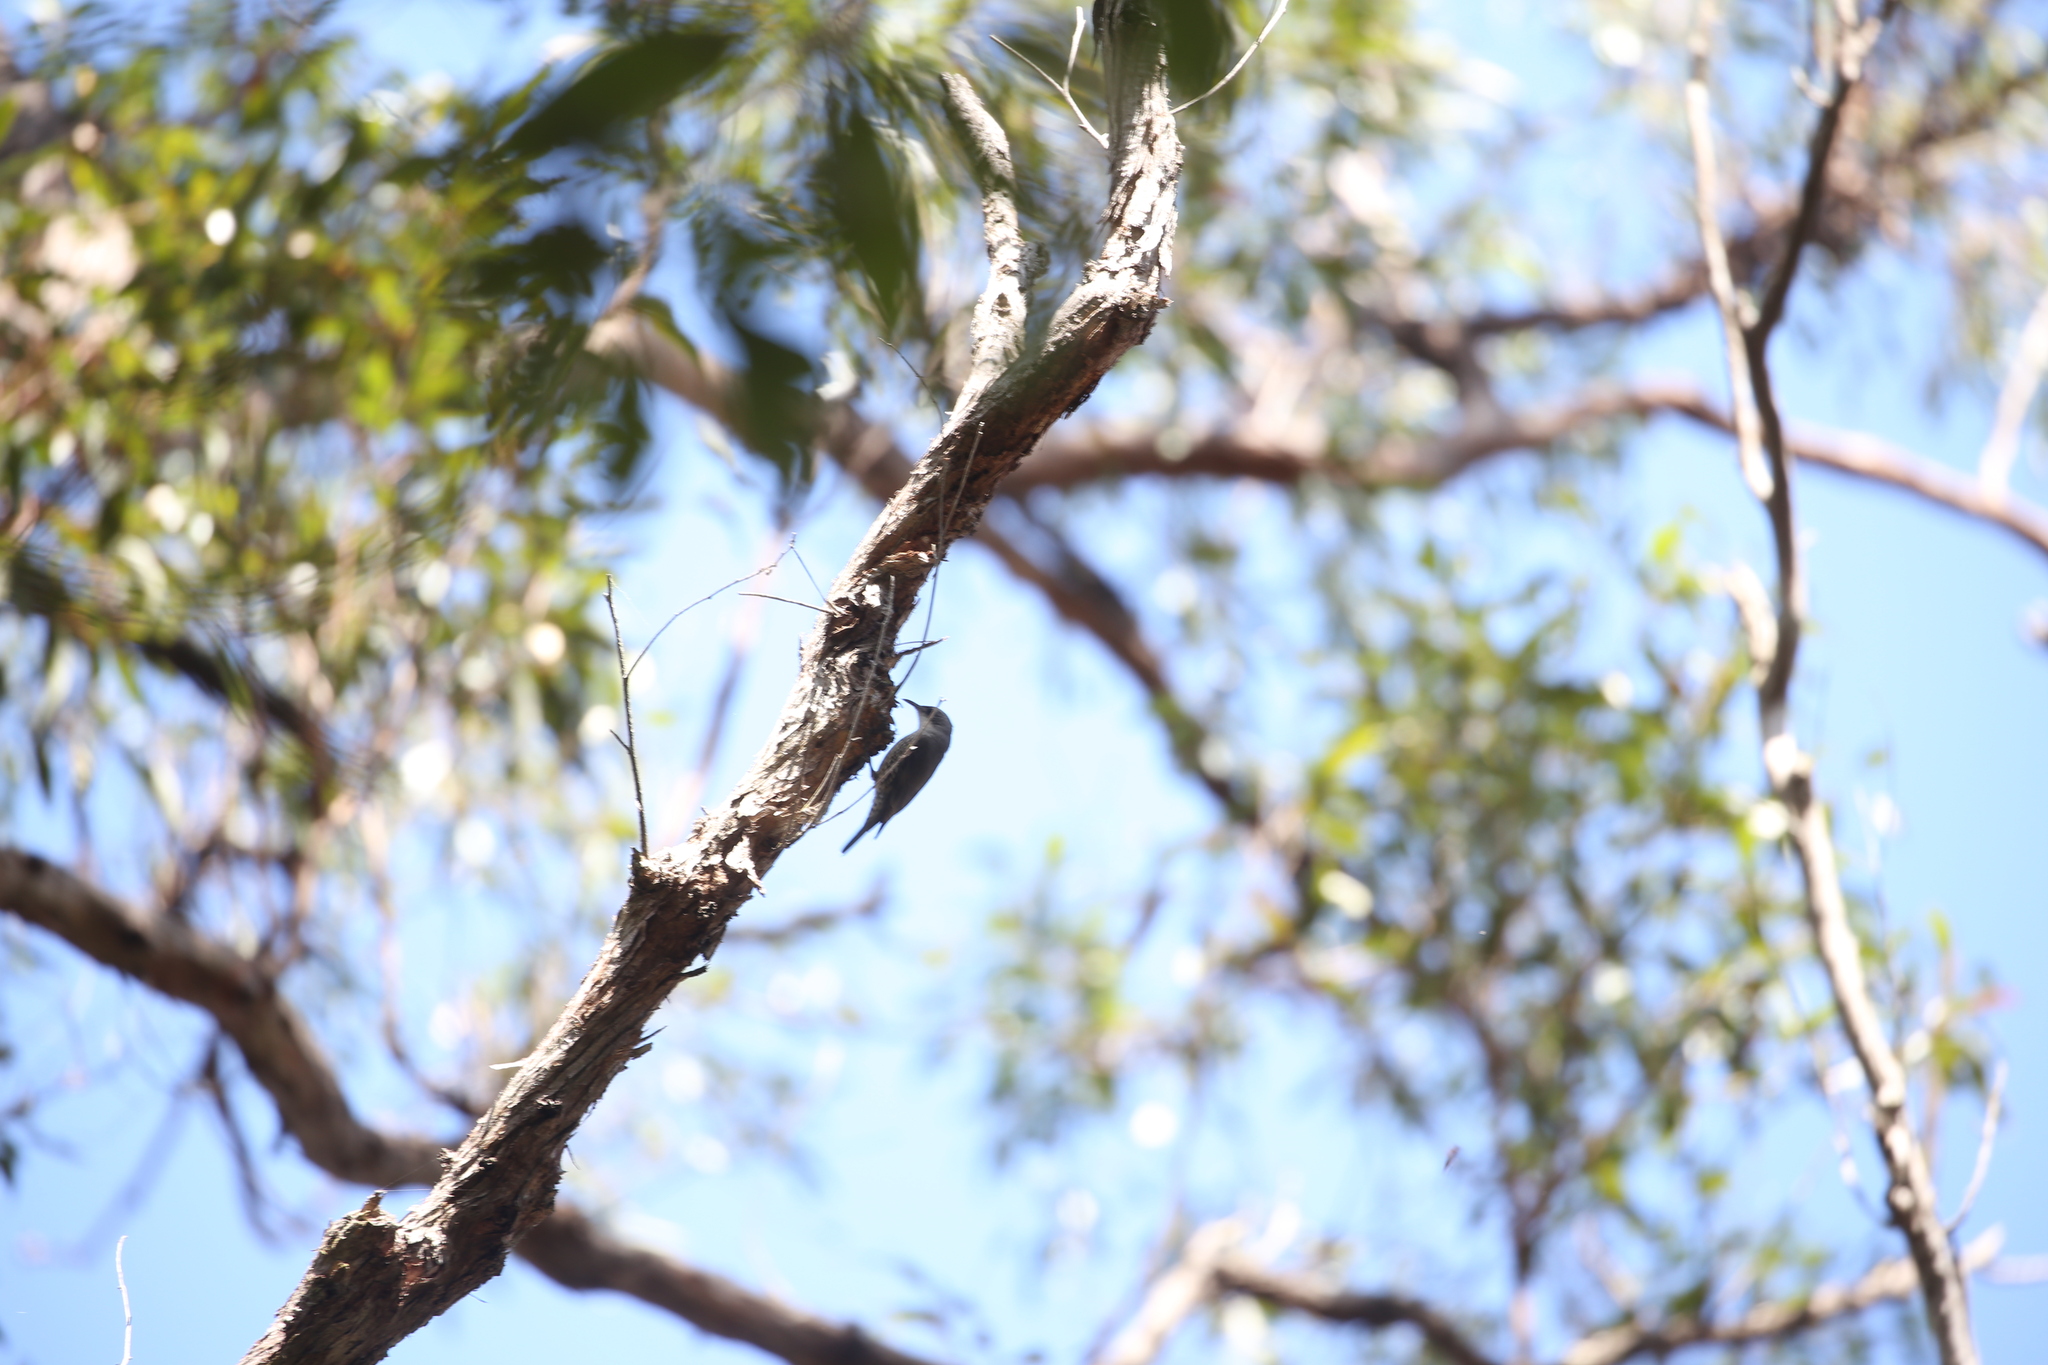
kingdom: Animalia
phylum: Chordata
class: Aves
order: Passeriformes
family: Climacteridae
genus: Cormobates
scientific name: Cormobates leucophaea
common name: White-throated treecreeper
